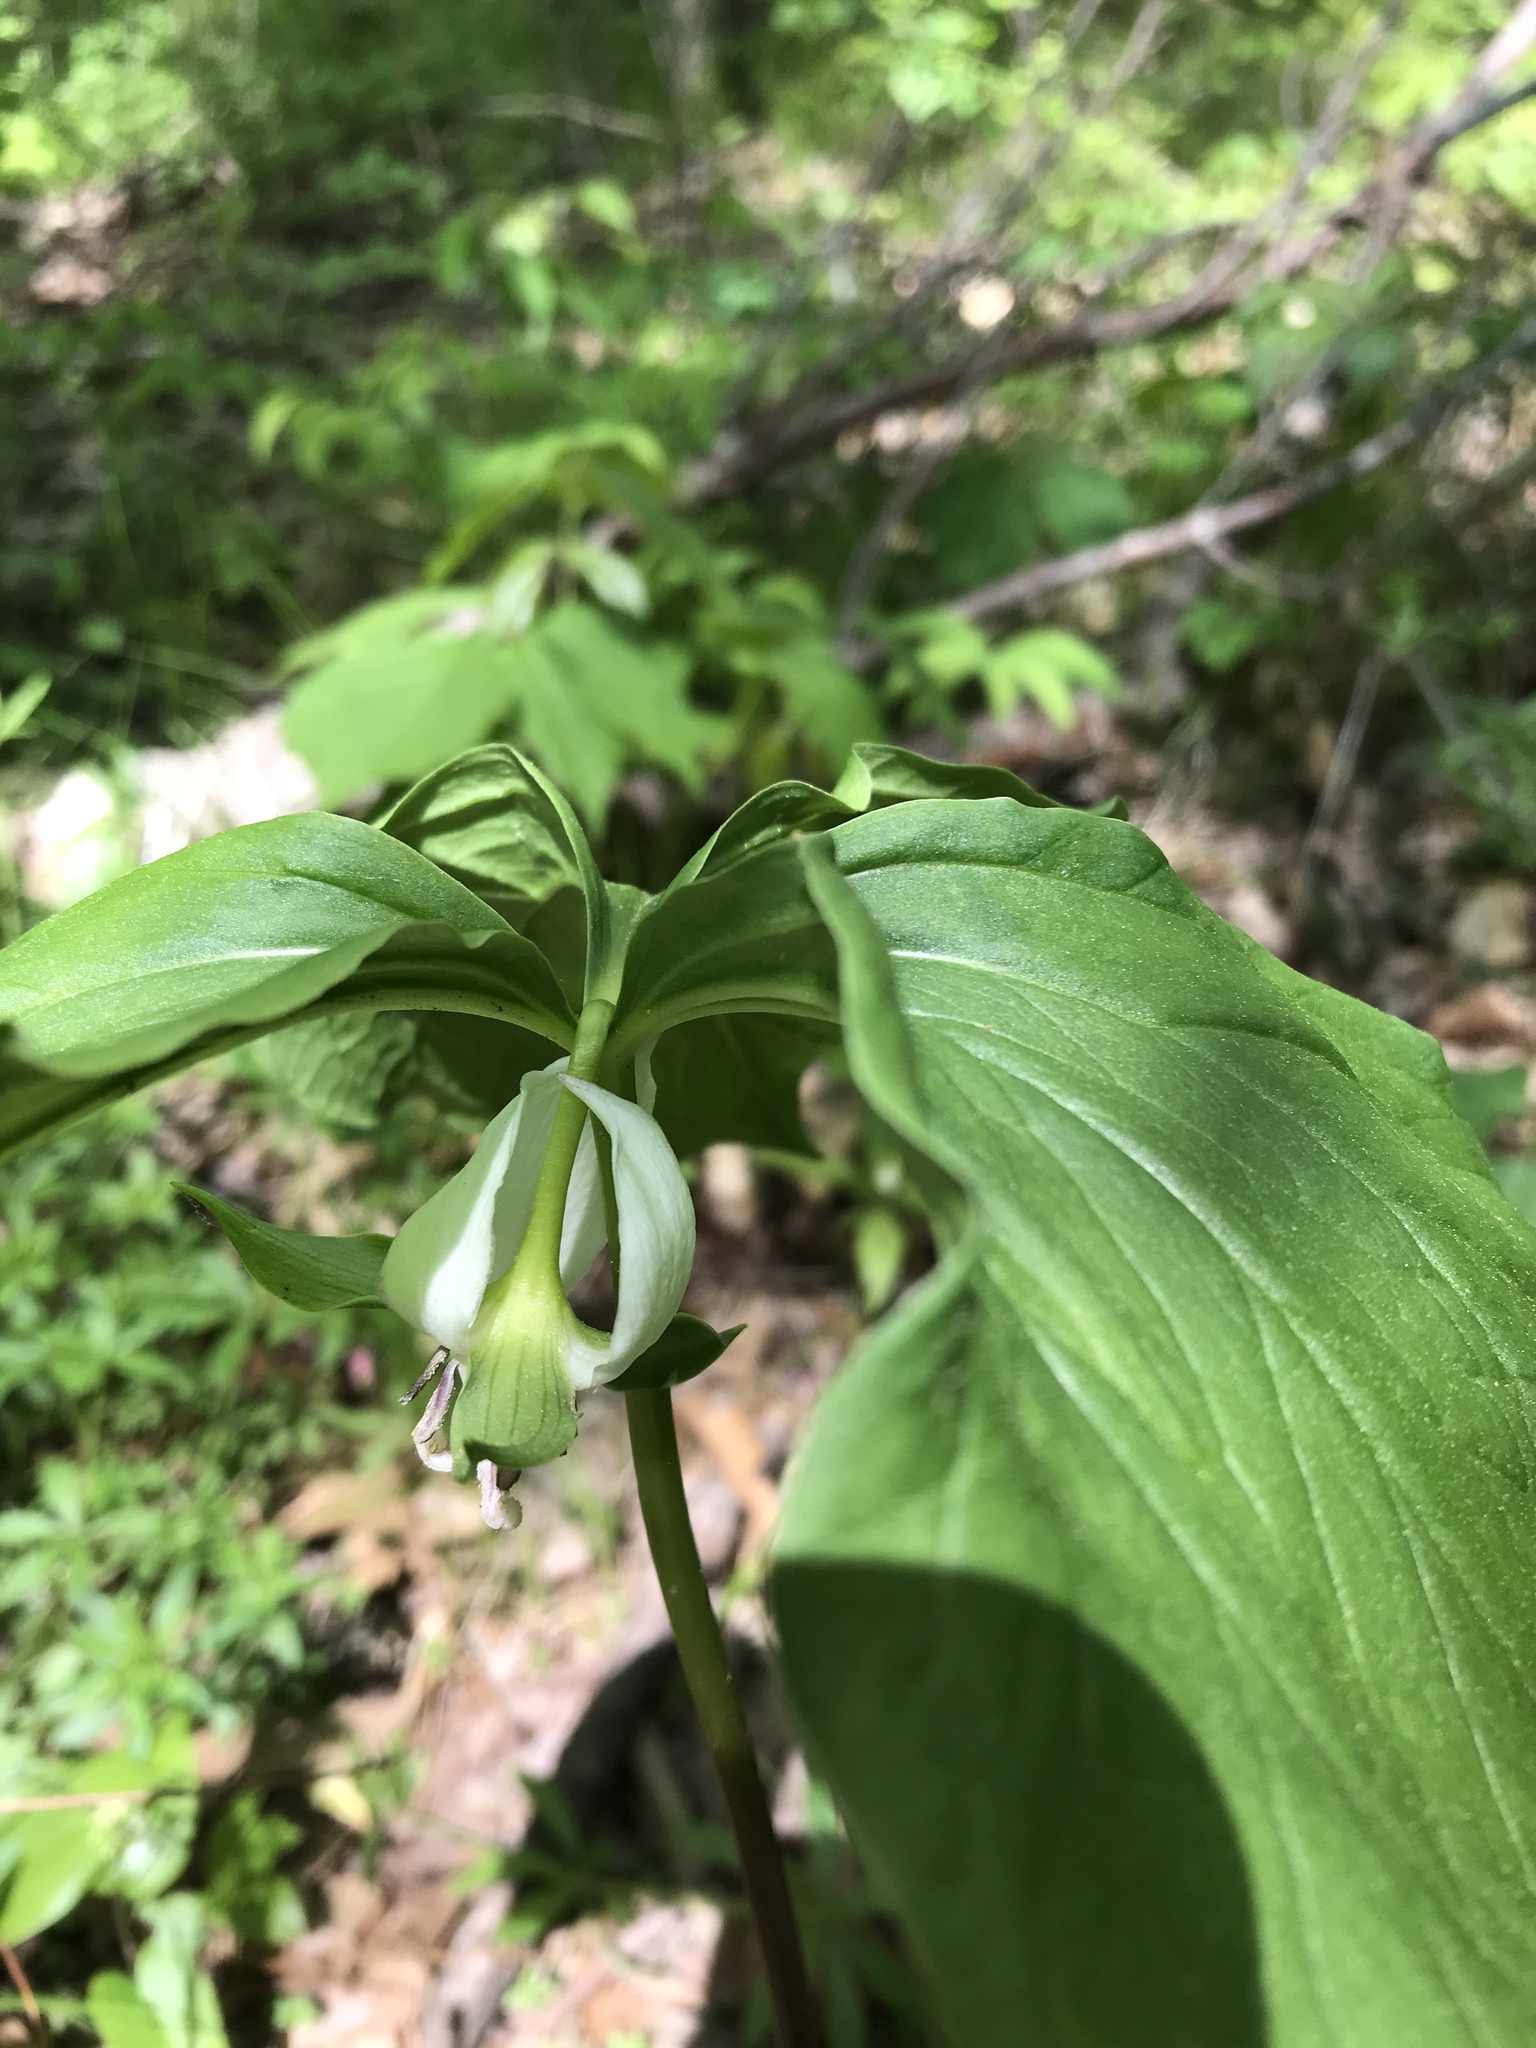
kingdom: Plantae
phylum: Tracheophyta
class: Liliopsida
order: Liliales
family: Melanthiaceae
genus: Trillium
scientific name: Trillium cernuum
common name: Nodding trillium
